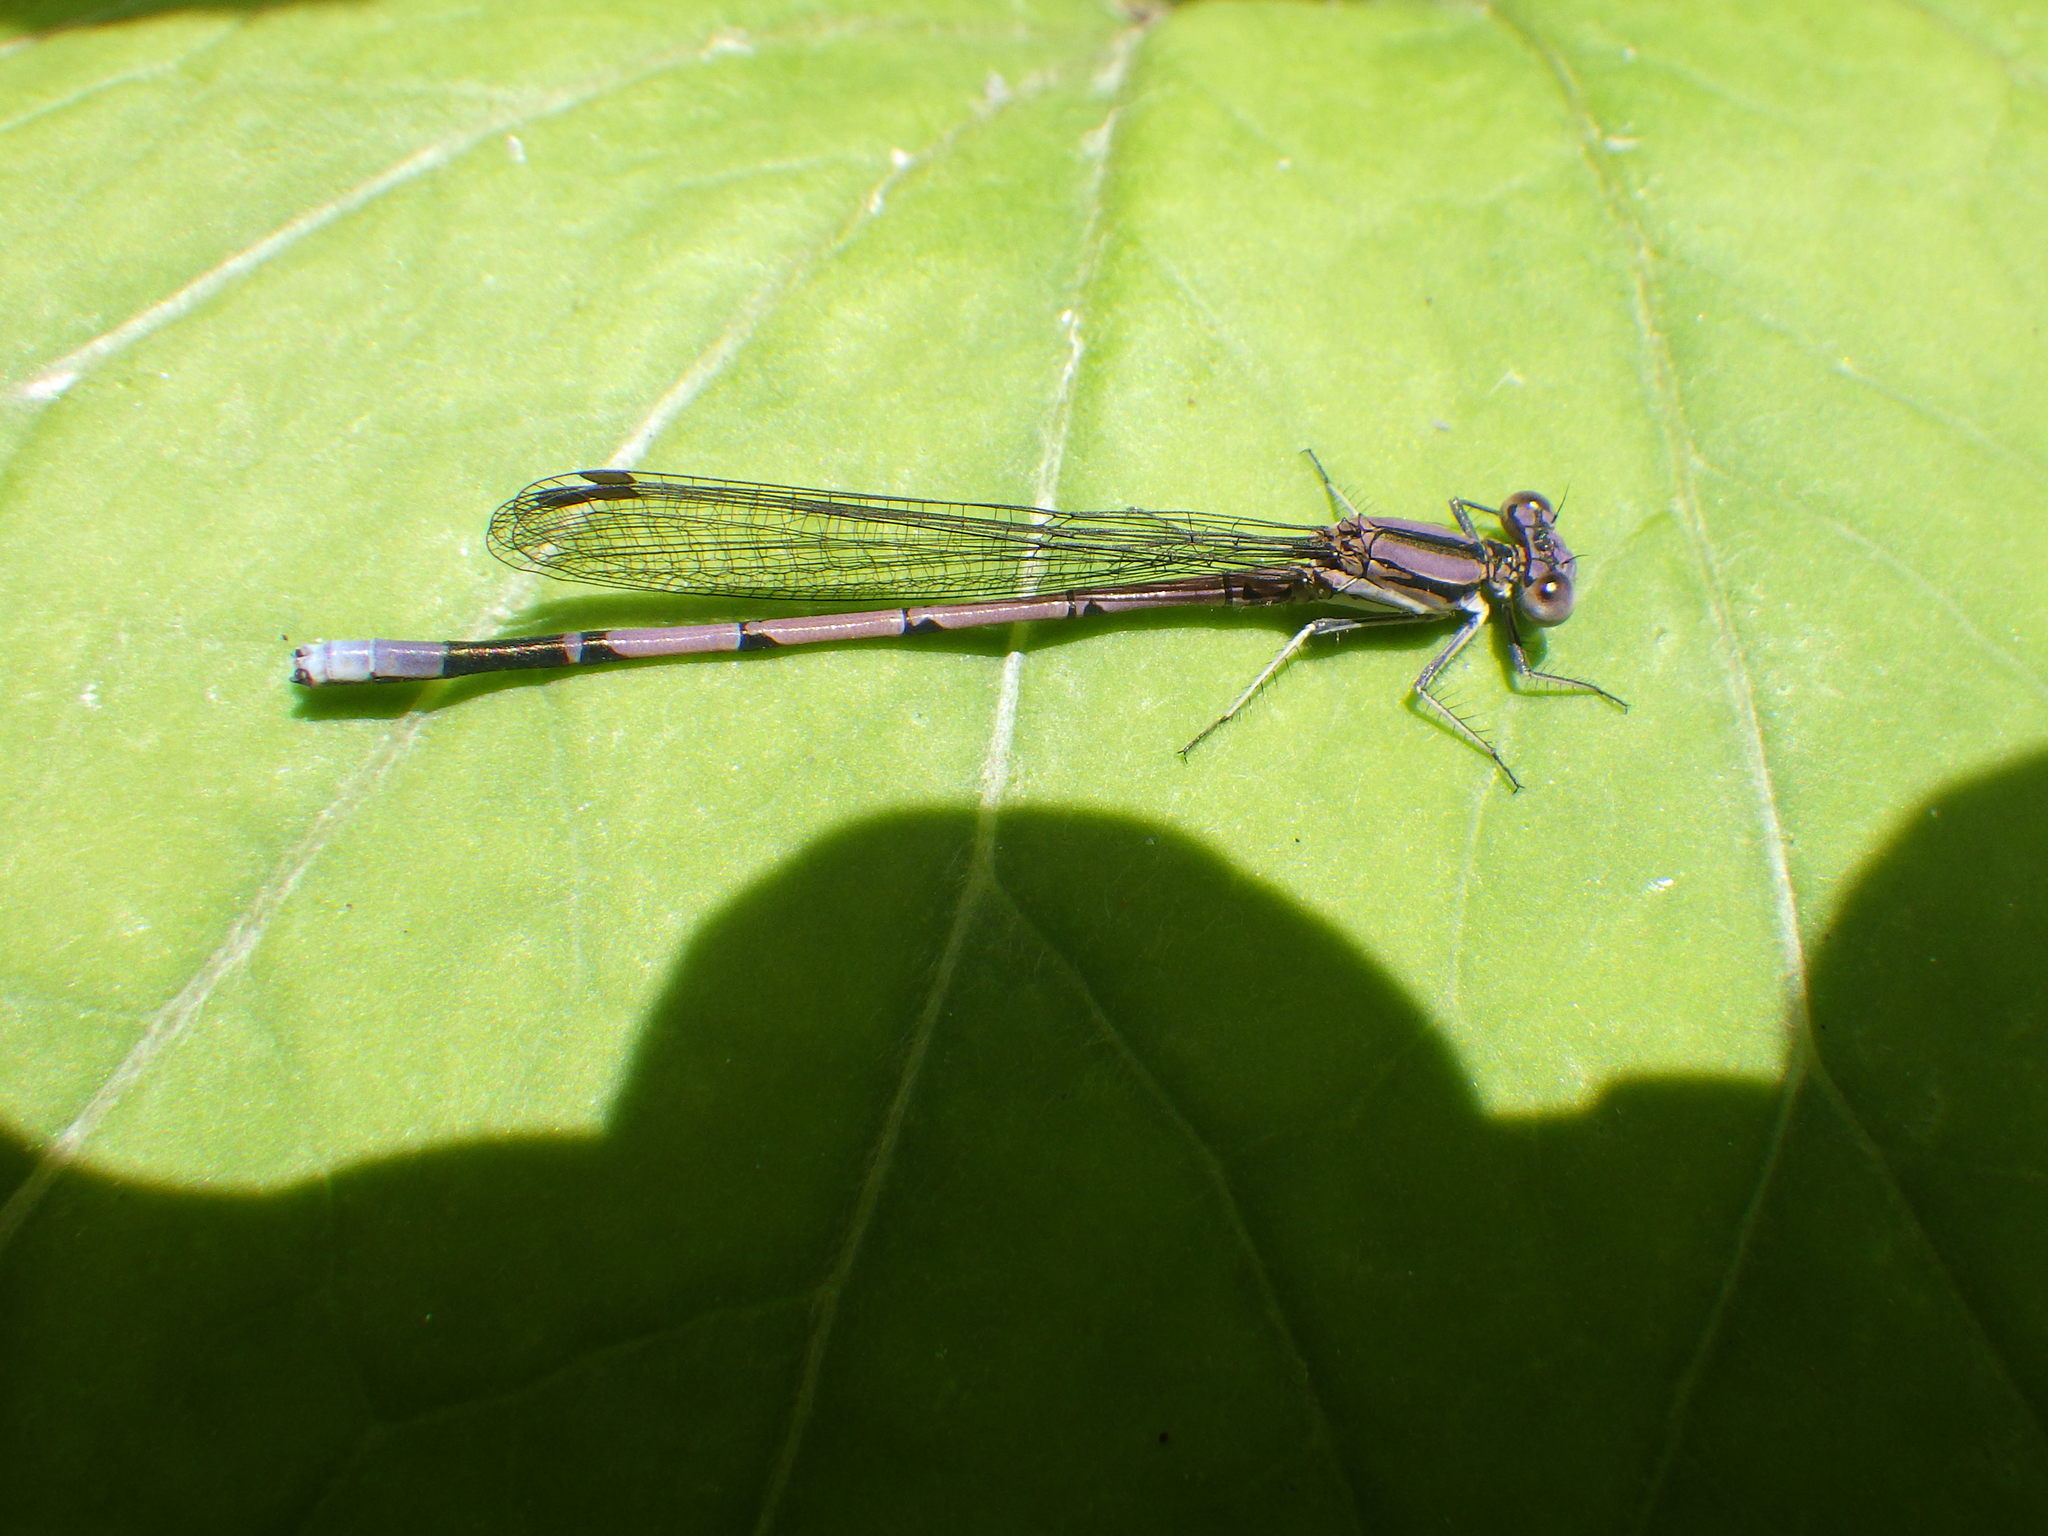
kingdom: Animalia
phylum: Arthropoda
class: Insecta
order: Odonata
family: Coenagrionidae
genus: Argia
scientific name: Argia fumipennis
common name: Variable dancer
